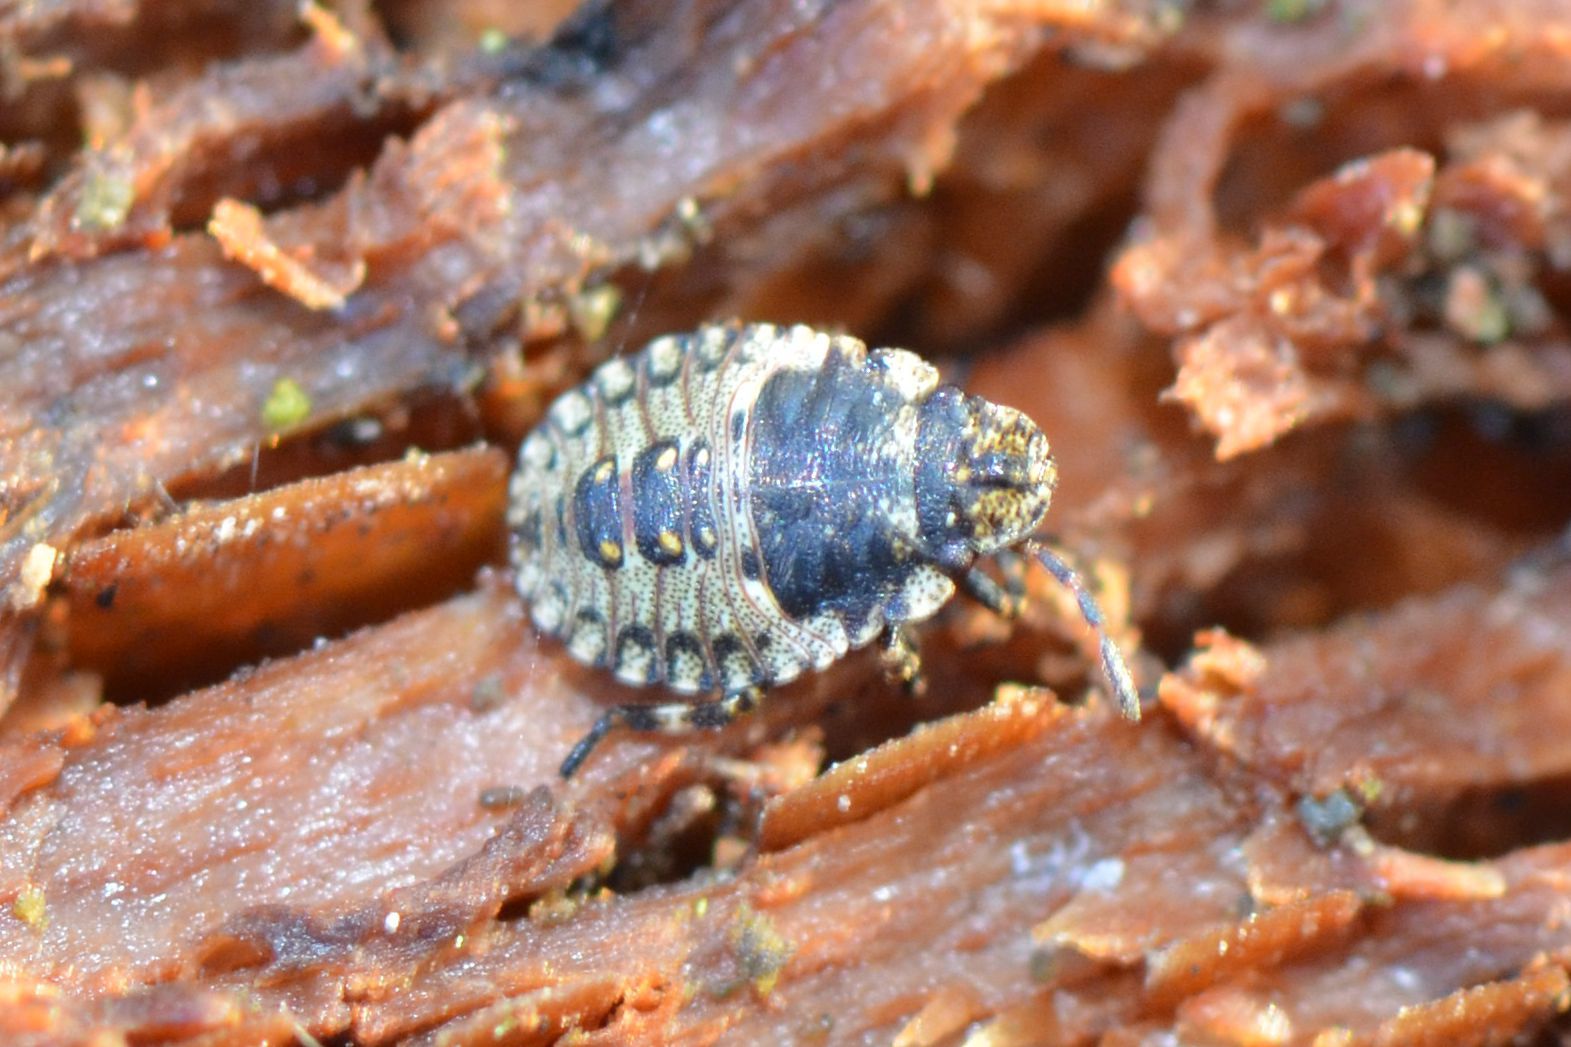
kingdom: Animalia
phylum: Arthropoda
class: Insecta
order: Hemiptera
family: Pentatomidae
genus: Pentatoma
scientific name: Pentatoma rufipes
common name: Forest bug
